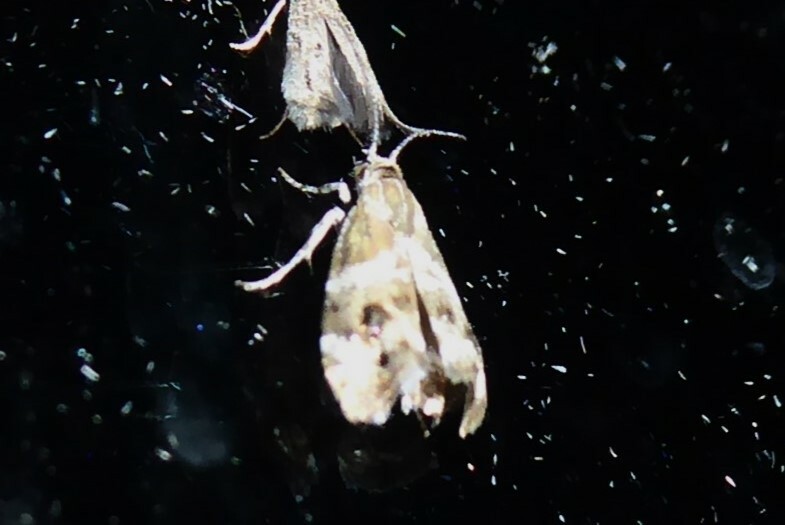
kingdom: Animalia
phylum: Arthropoda
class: Insecta
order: Lepidoptera
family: Choreutidae
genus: Tebenna
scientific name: Tebenna micalis
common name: Vagrant twitcher
